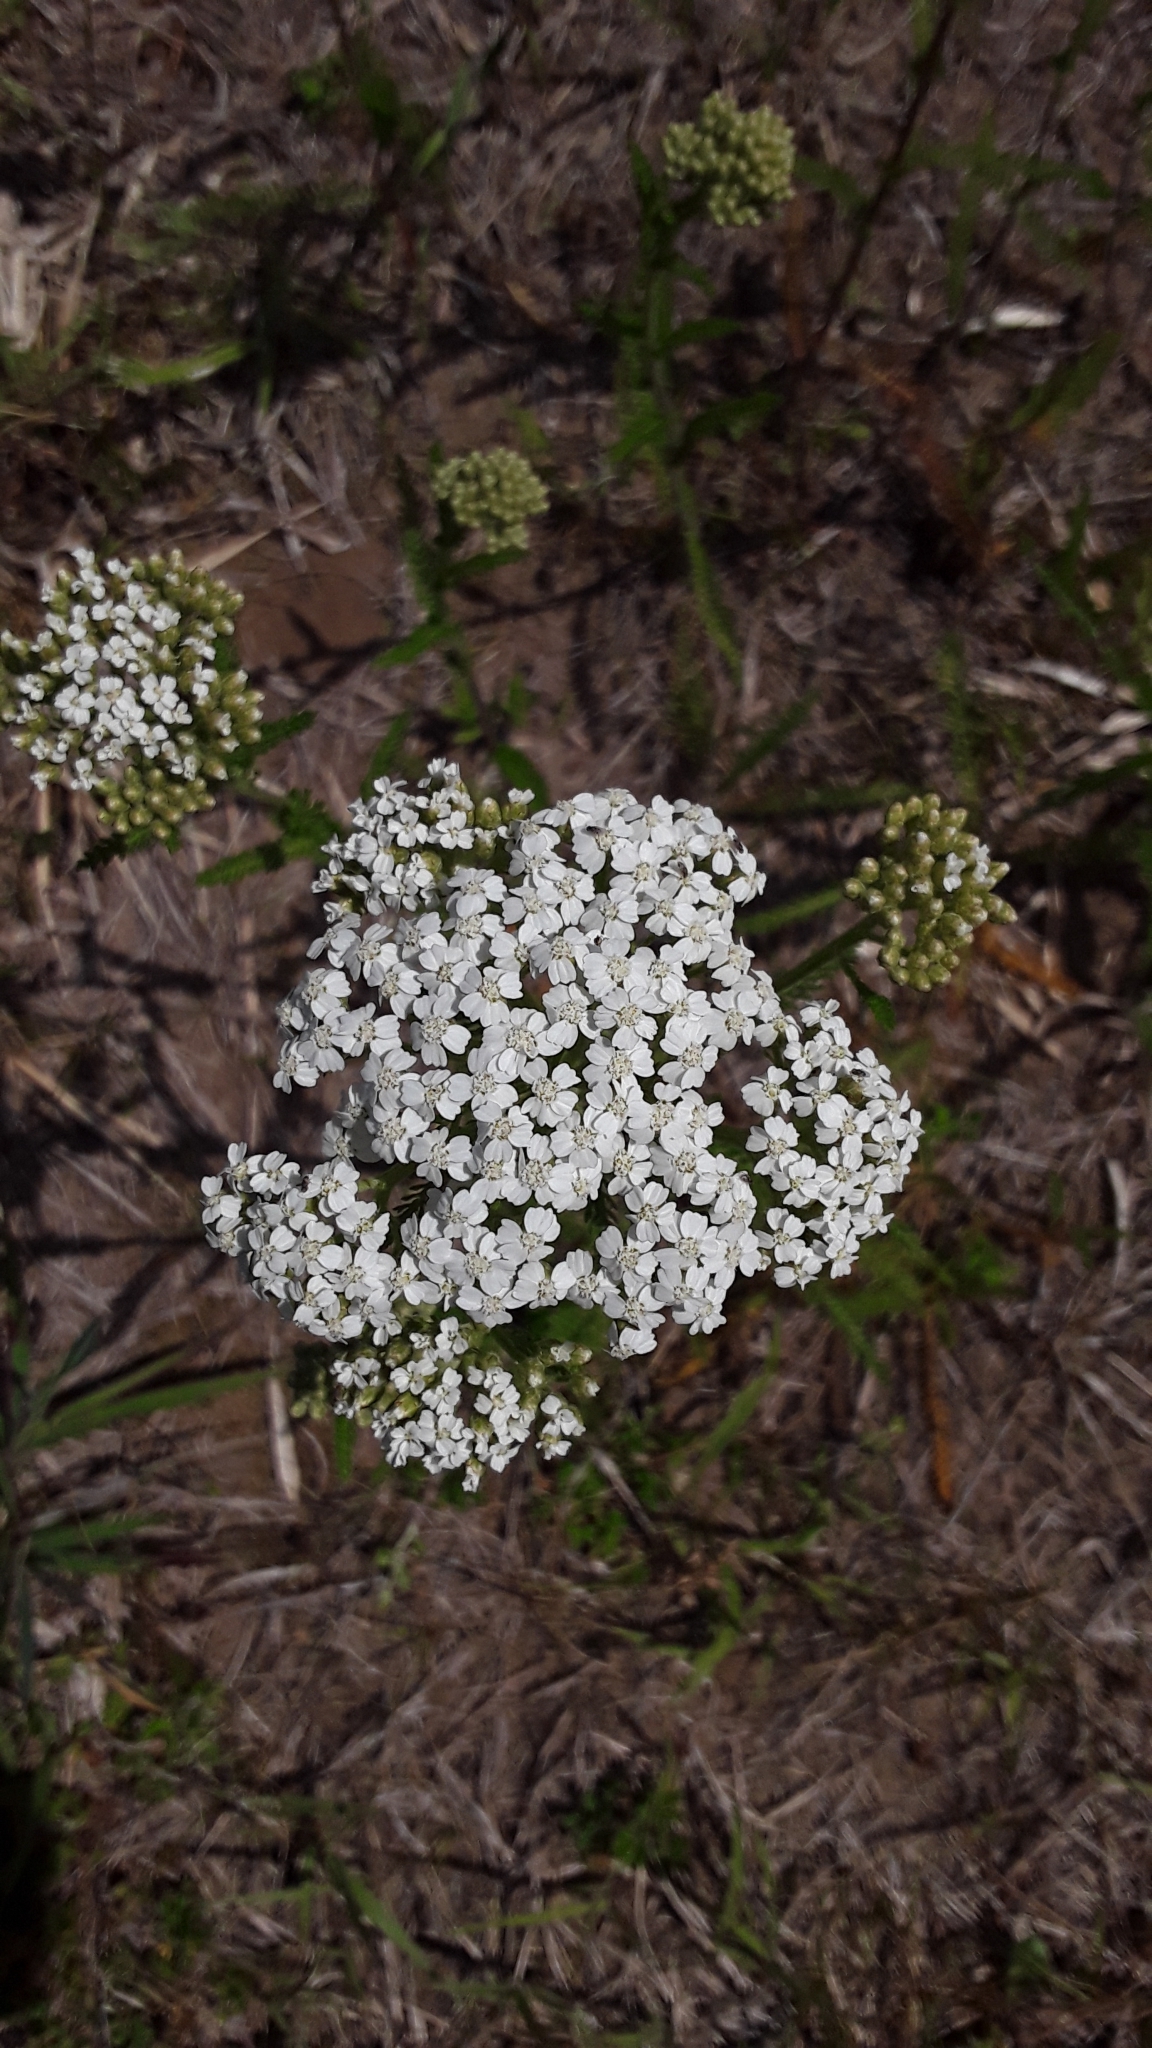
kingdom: Plantae
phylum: Tracheophyta
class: Magnoliopsida
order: Asterales
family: Asteraceae
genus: Achillea
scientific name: Achillea millefolium
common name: Yarrow
